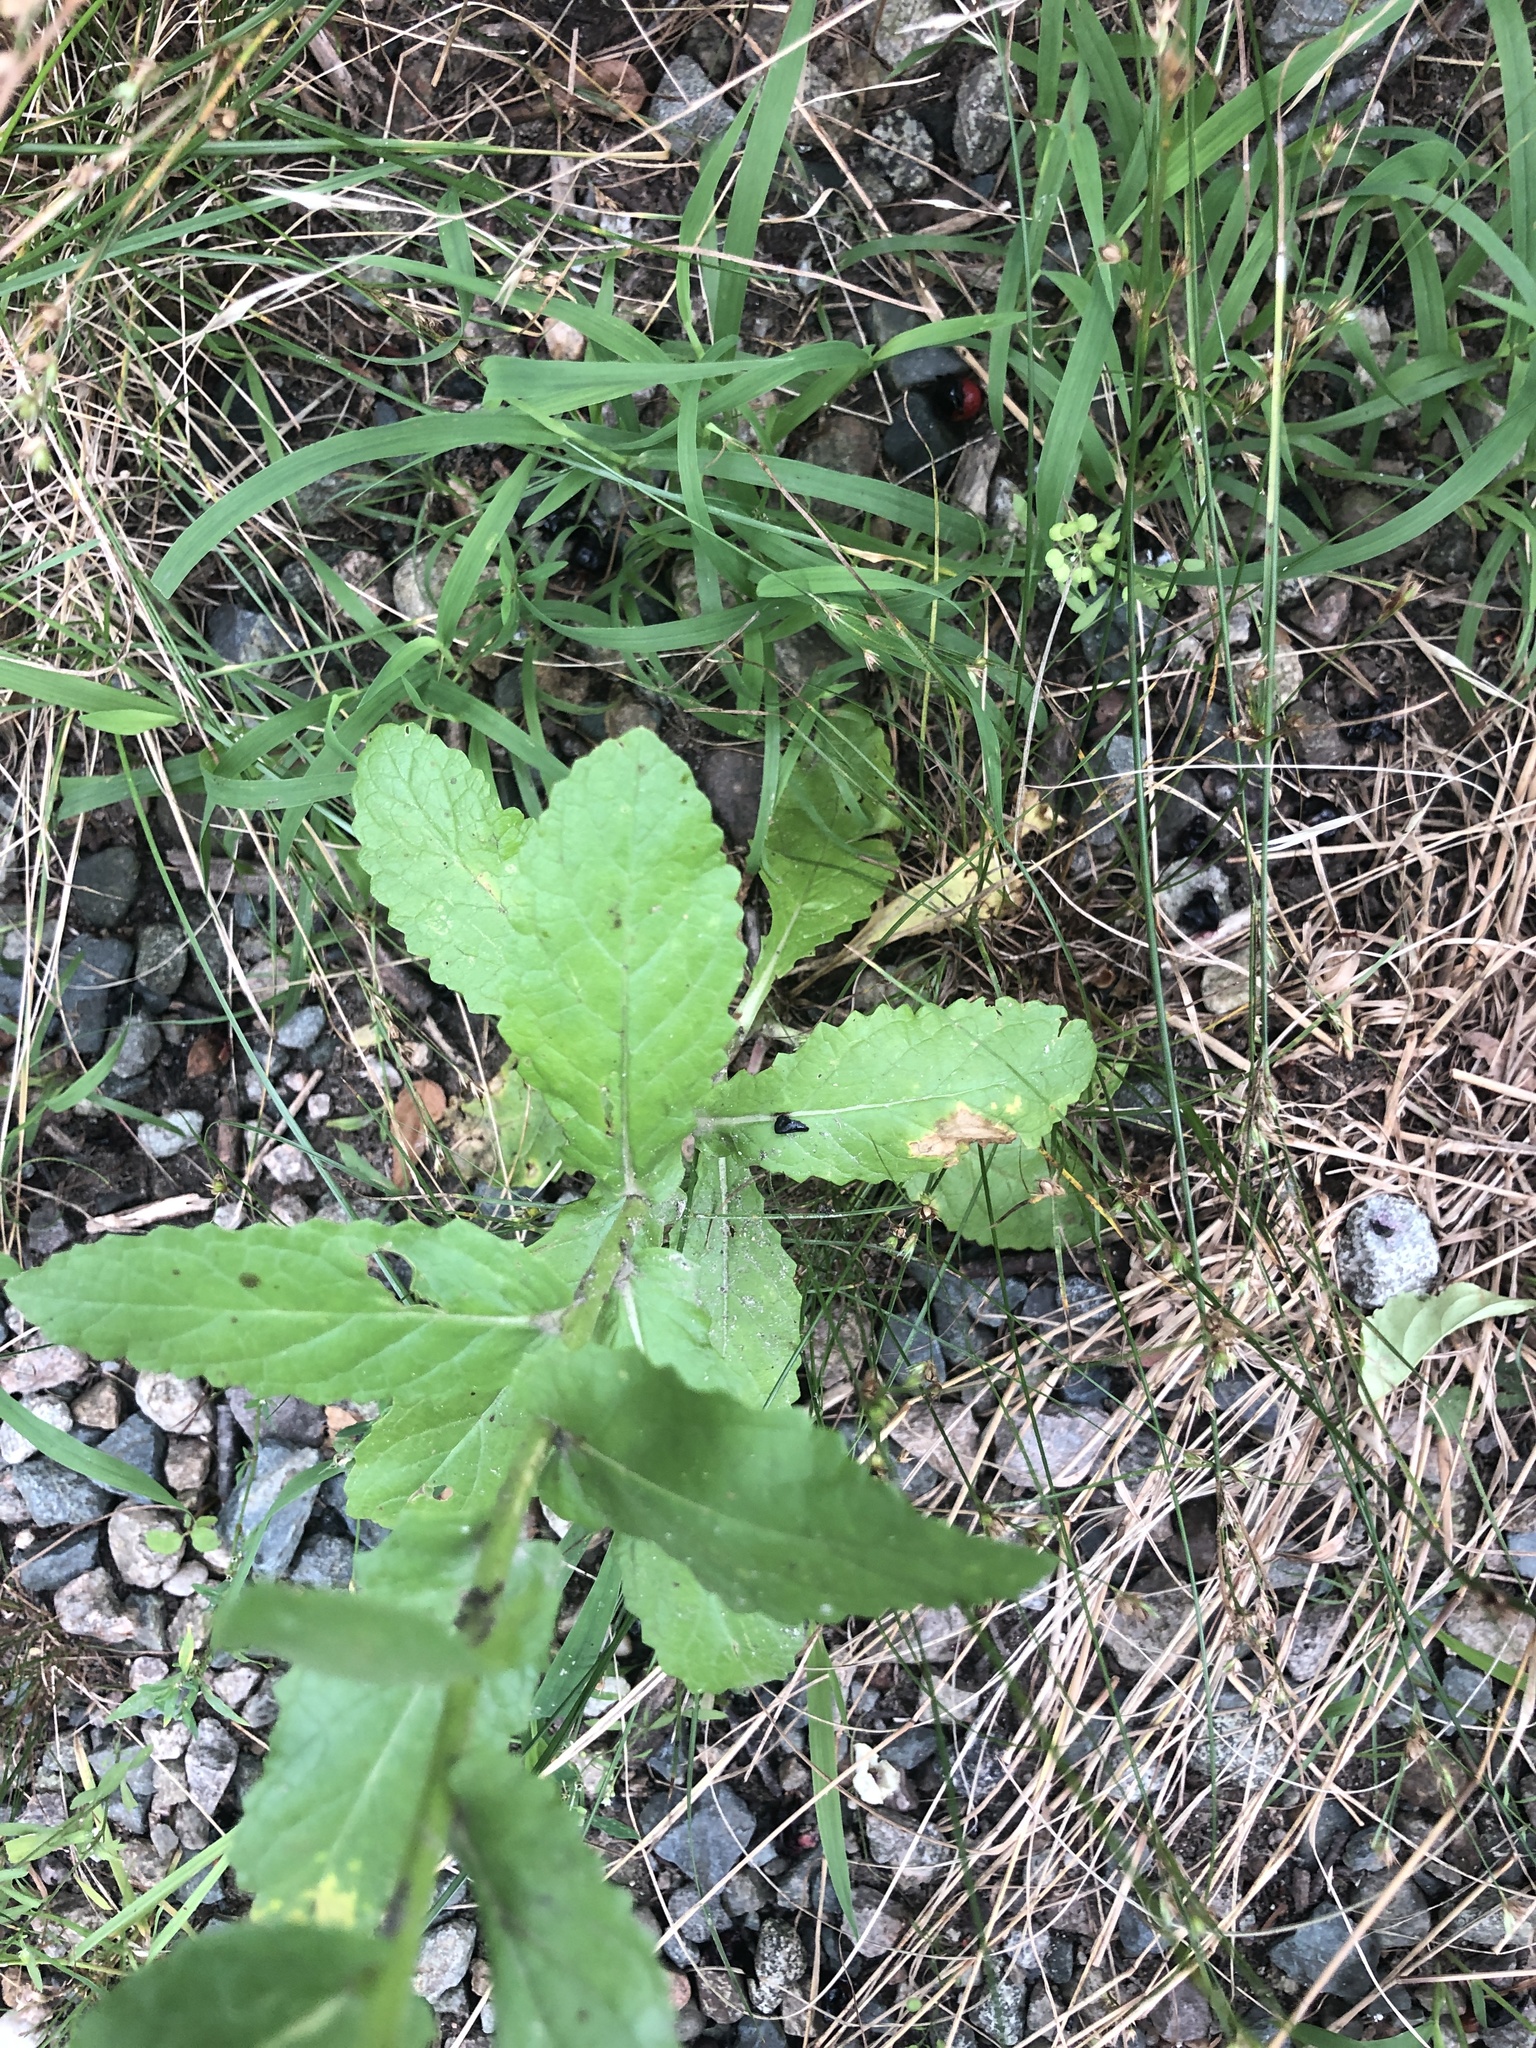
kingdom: Plantae
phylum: Tracheophyta
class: Magnoliopsida
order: Lamiales
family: Scrophulariaceae
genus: Verbascum
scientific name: Verbascum blattaria
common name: Moth mullein
